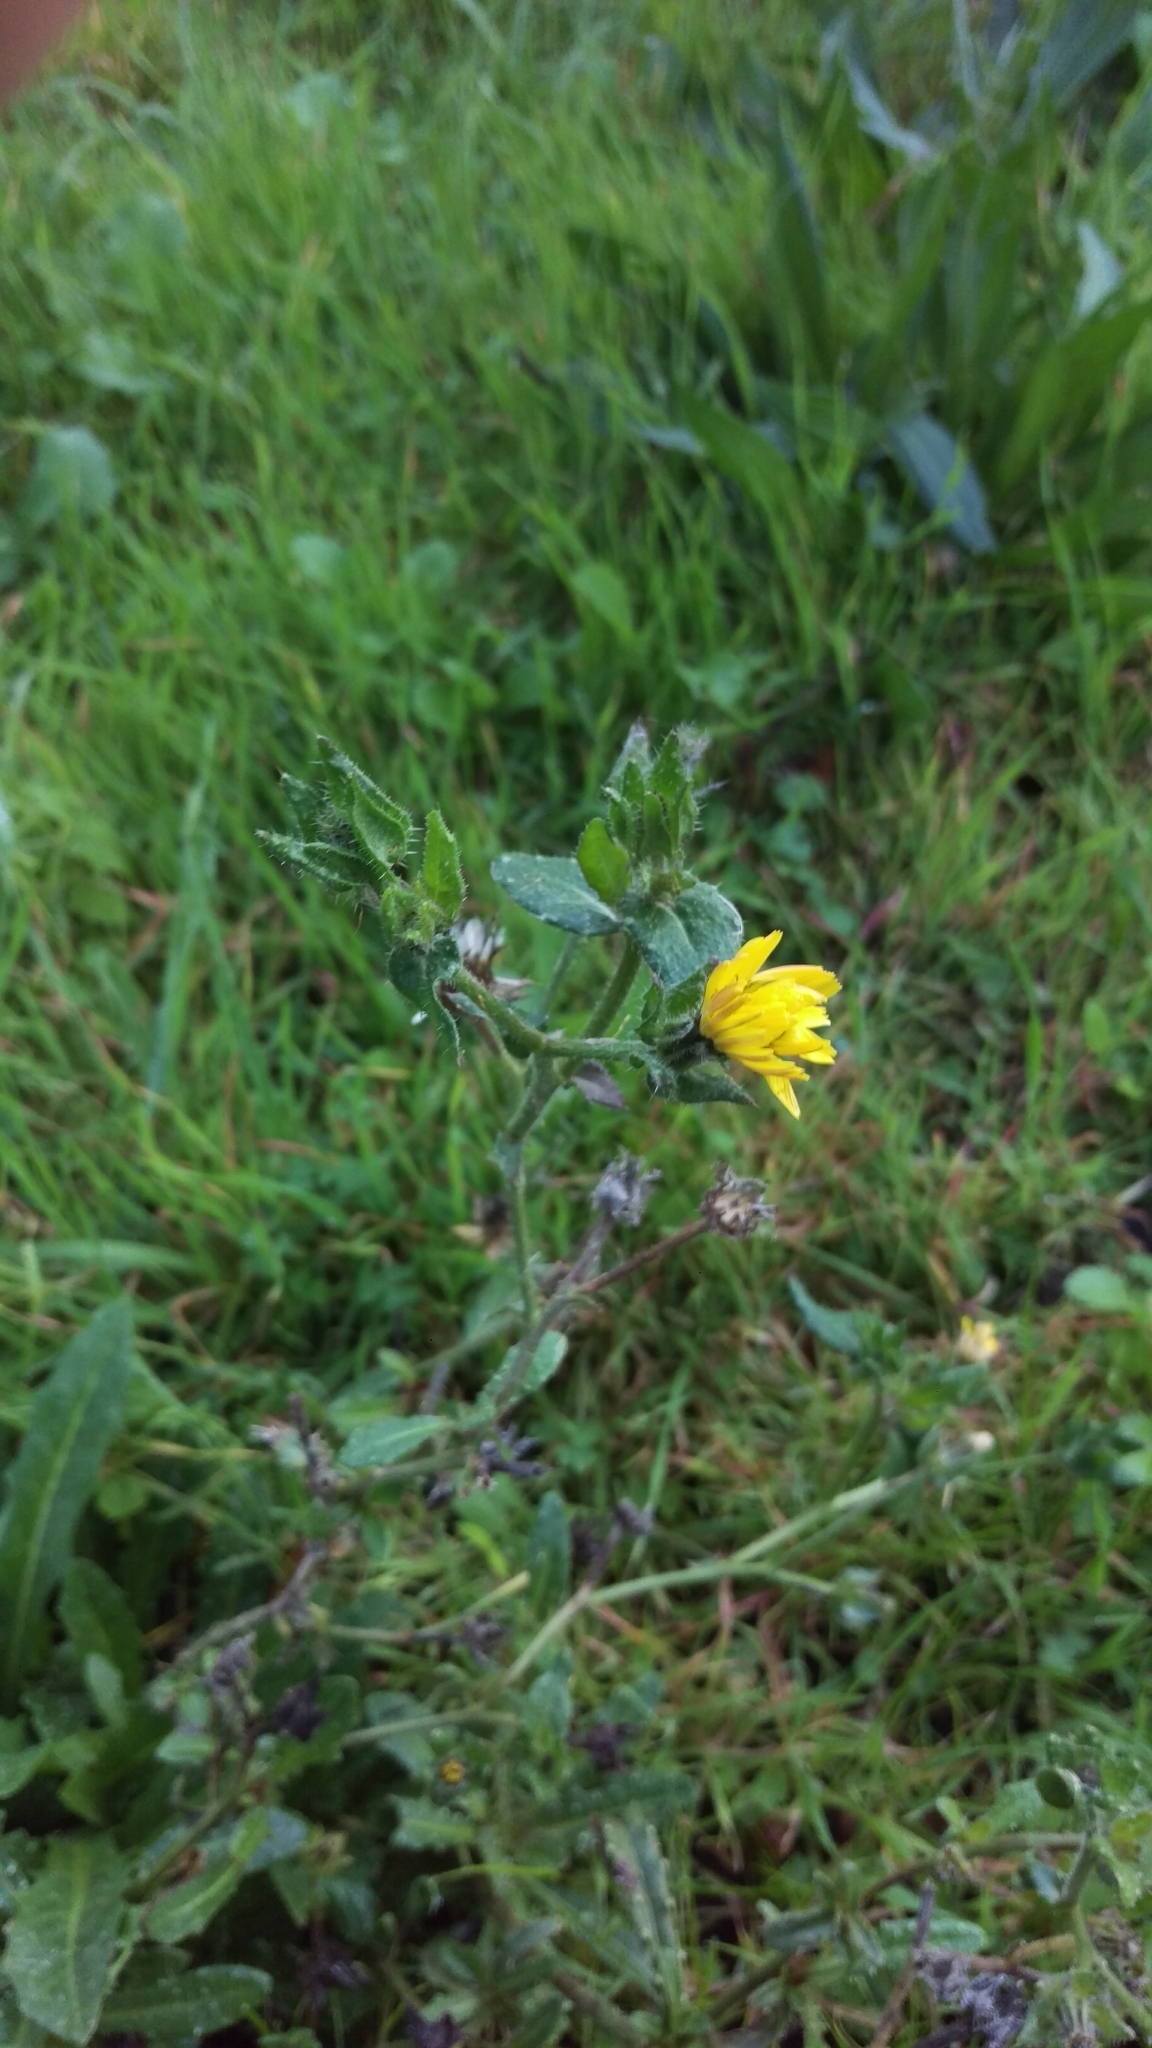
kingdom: Plantae
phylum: Tracheophyta
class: Magnoliopsida
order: Asterales
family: Asteraceae
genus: Helminthotheca
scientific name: Helminthotheca echioides
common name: Ox-tongue
